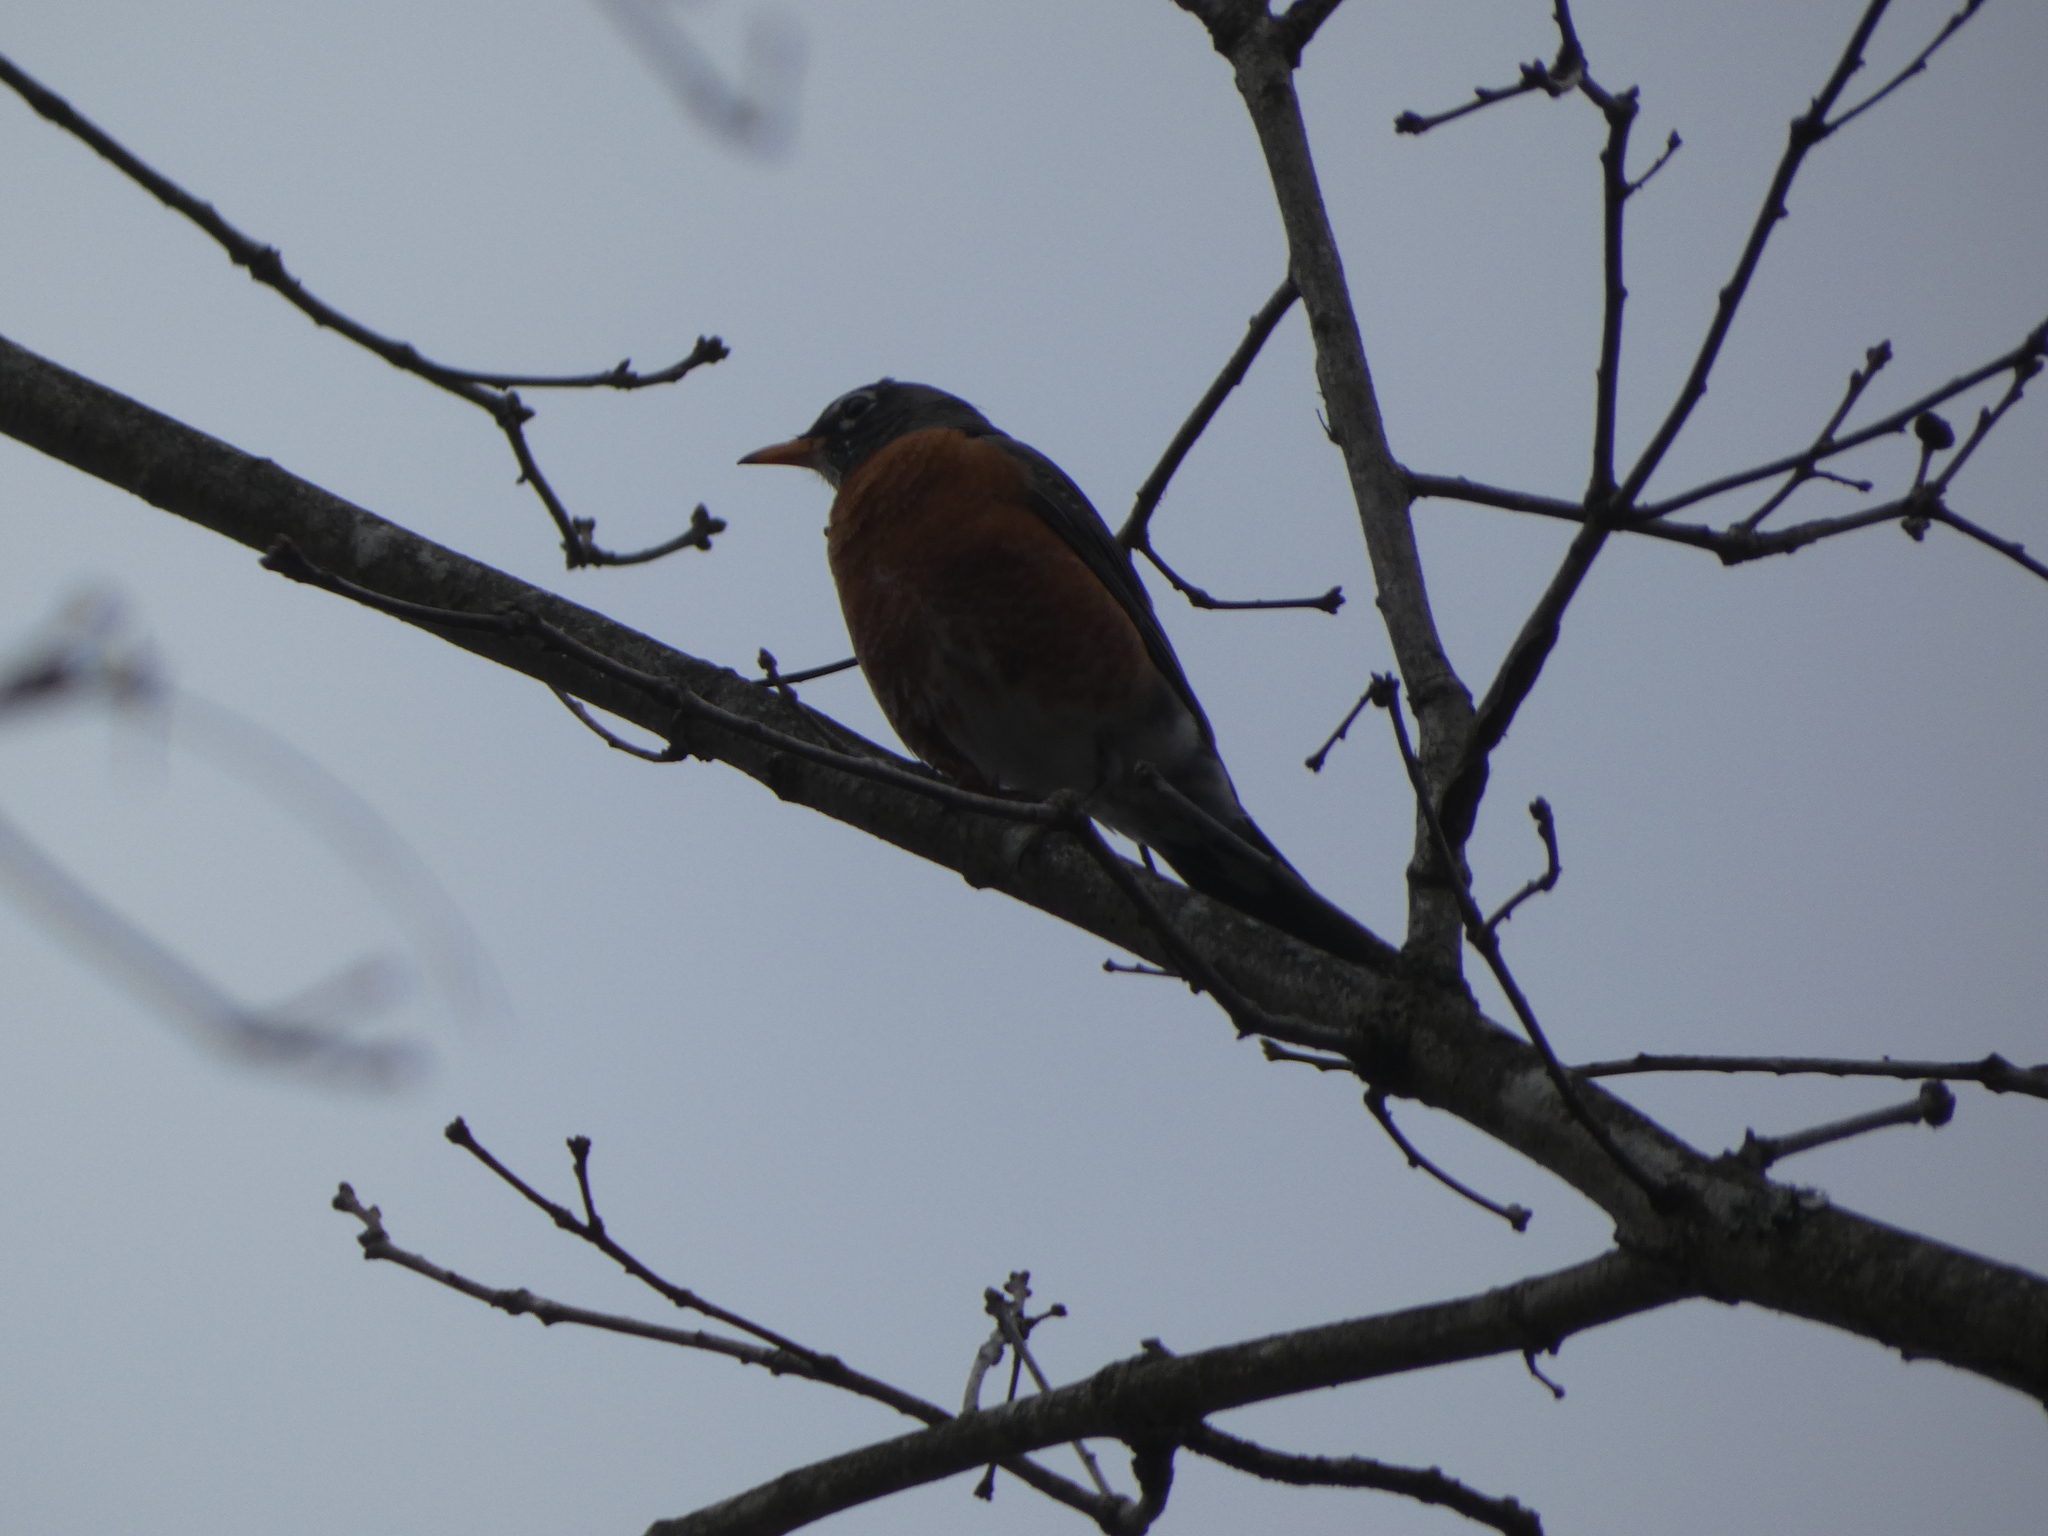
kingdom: Animalia
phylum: Chordata
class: Aves
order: Passeriformes
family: Turdidae
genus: Turdus
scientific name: Turdus migratorius
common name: American robin
